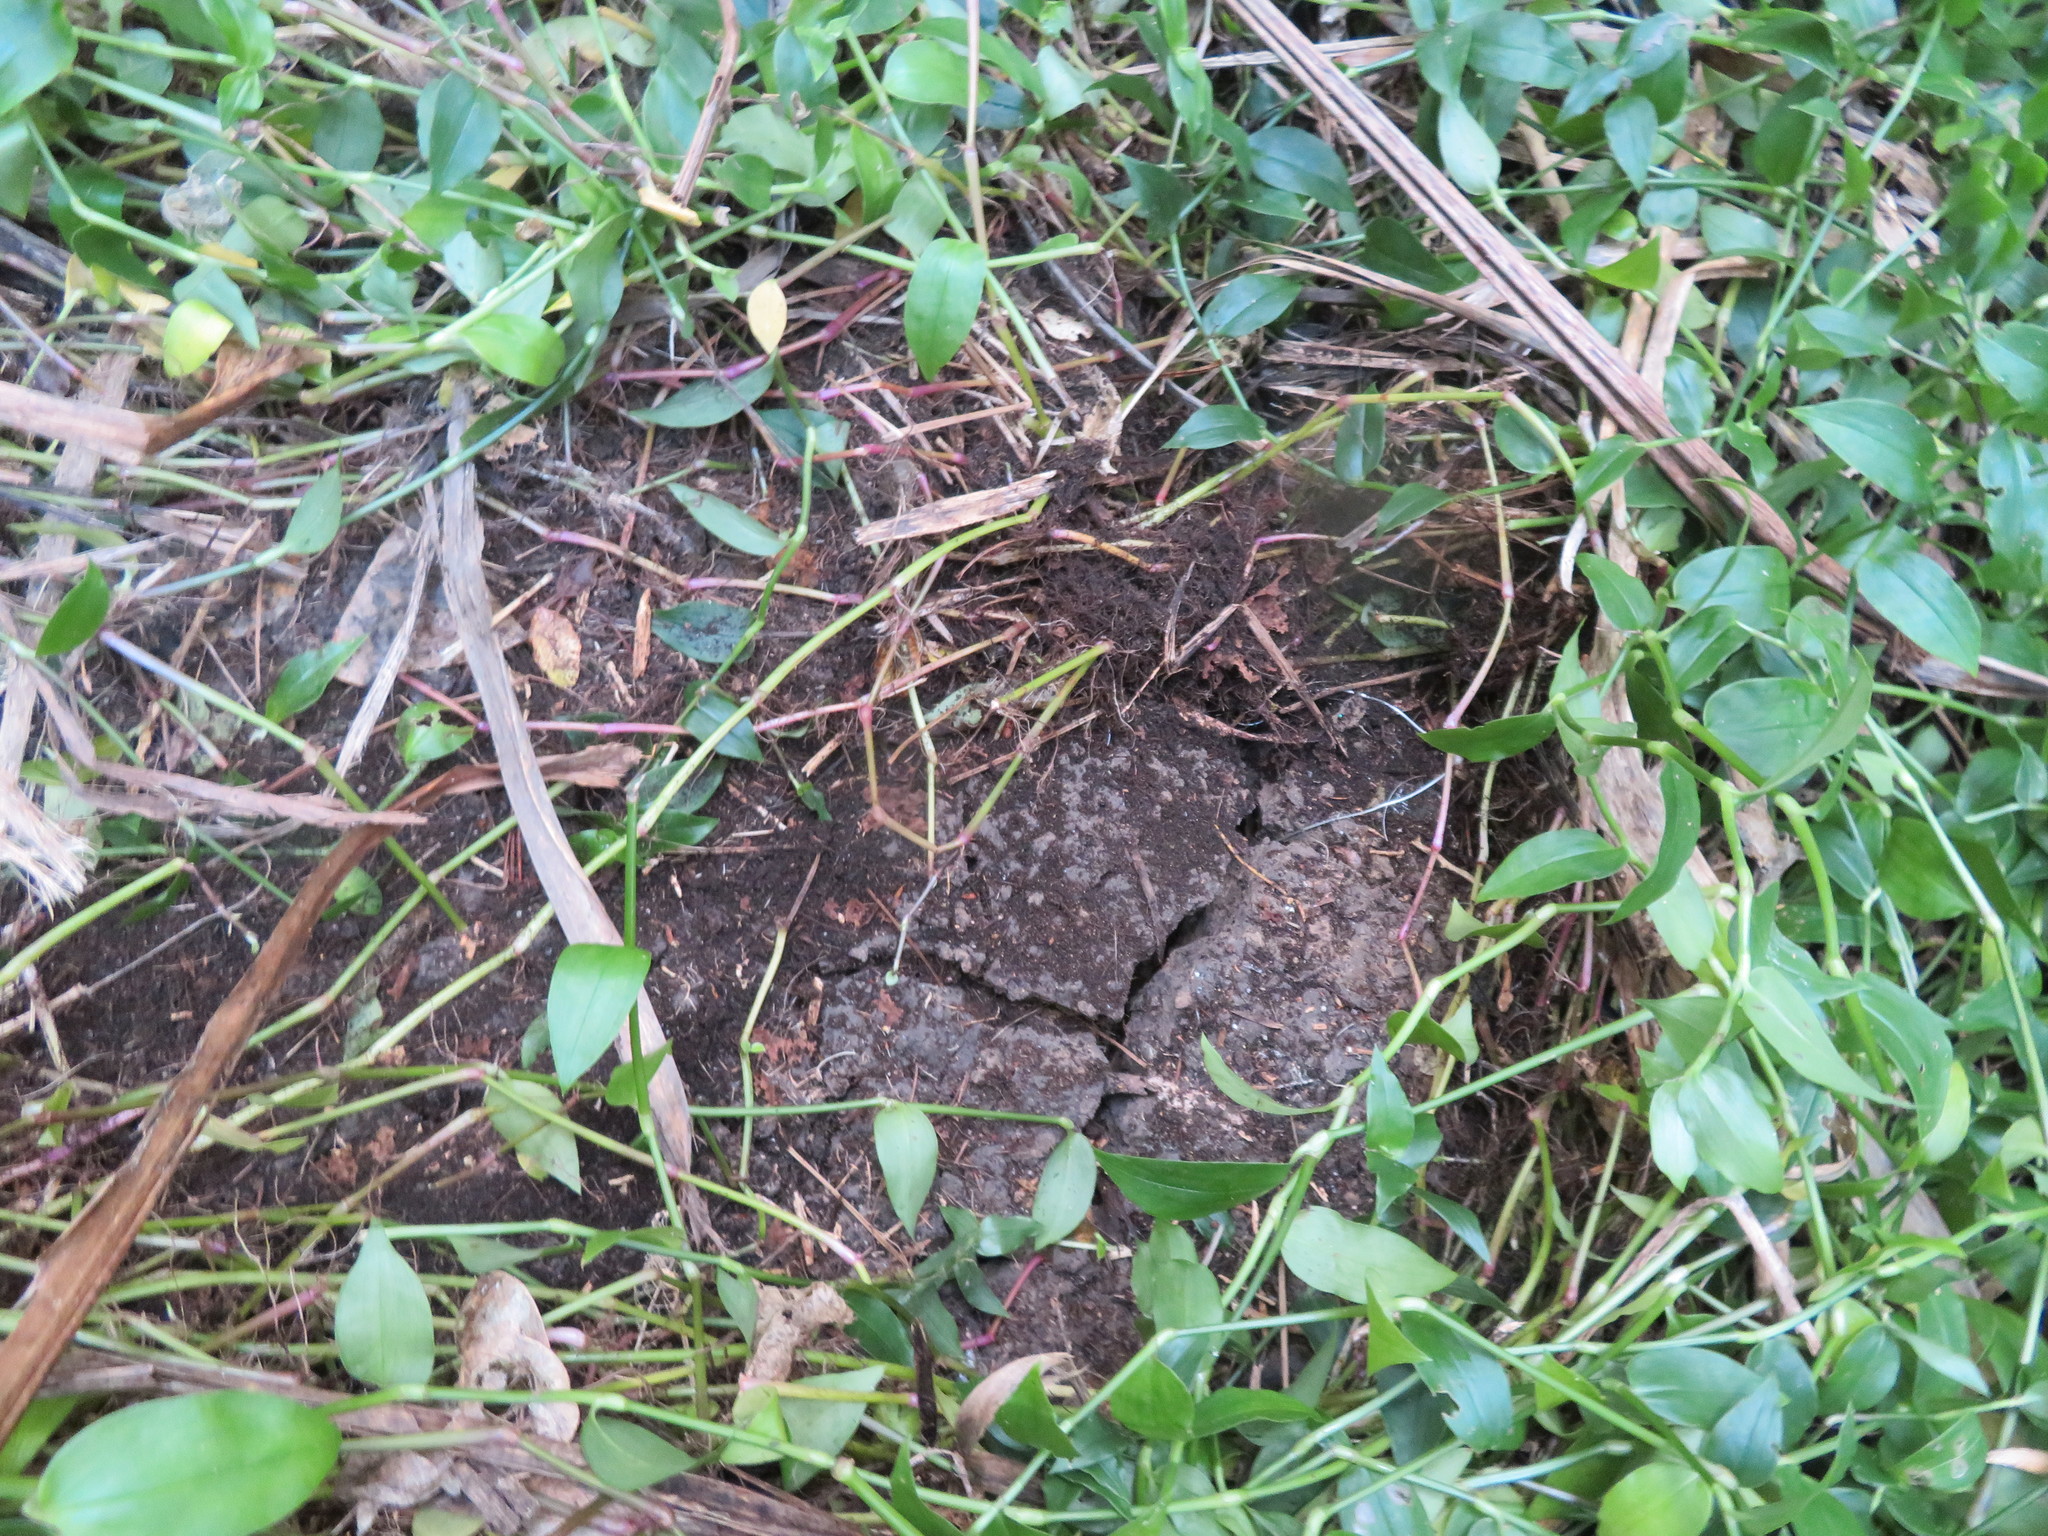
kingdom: Plantae
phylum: Tracheophyta
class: Liliopsida
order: Commelinales
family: Commelinaceae
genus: Tradescantia
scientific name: Tradescantia fluminensis
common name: Wandering-jew
